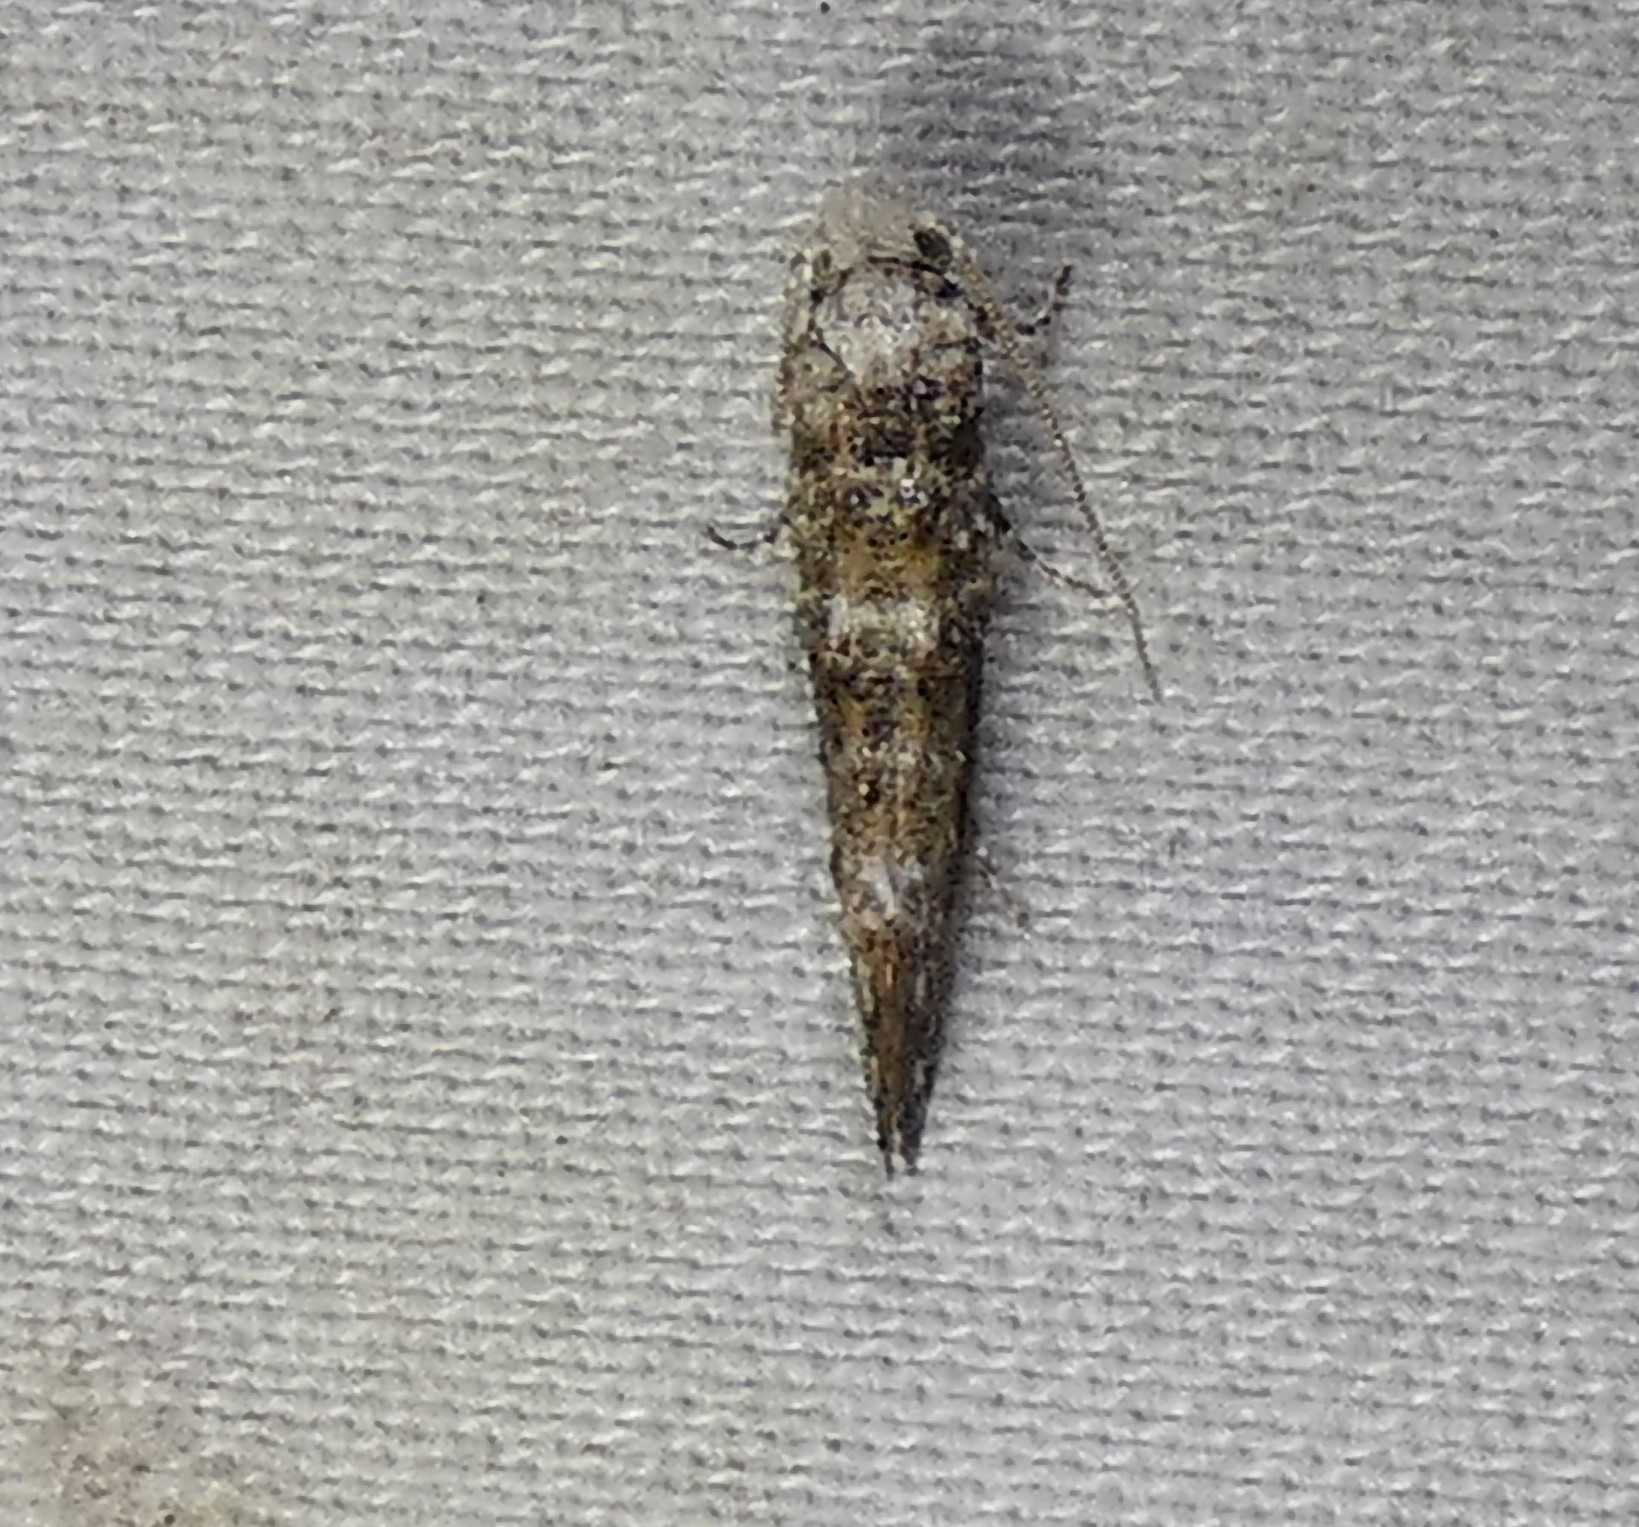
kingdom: Animalia
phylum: Arthropoda
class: Insecta
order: Lepidoptera
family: Tineidae
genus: Xylesthia
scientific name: Xylesthia pruniramiella
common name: Clemens' bark moth
